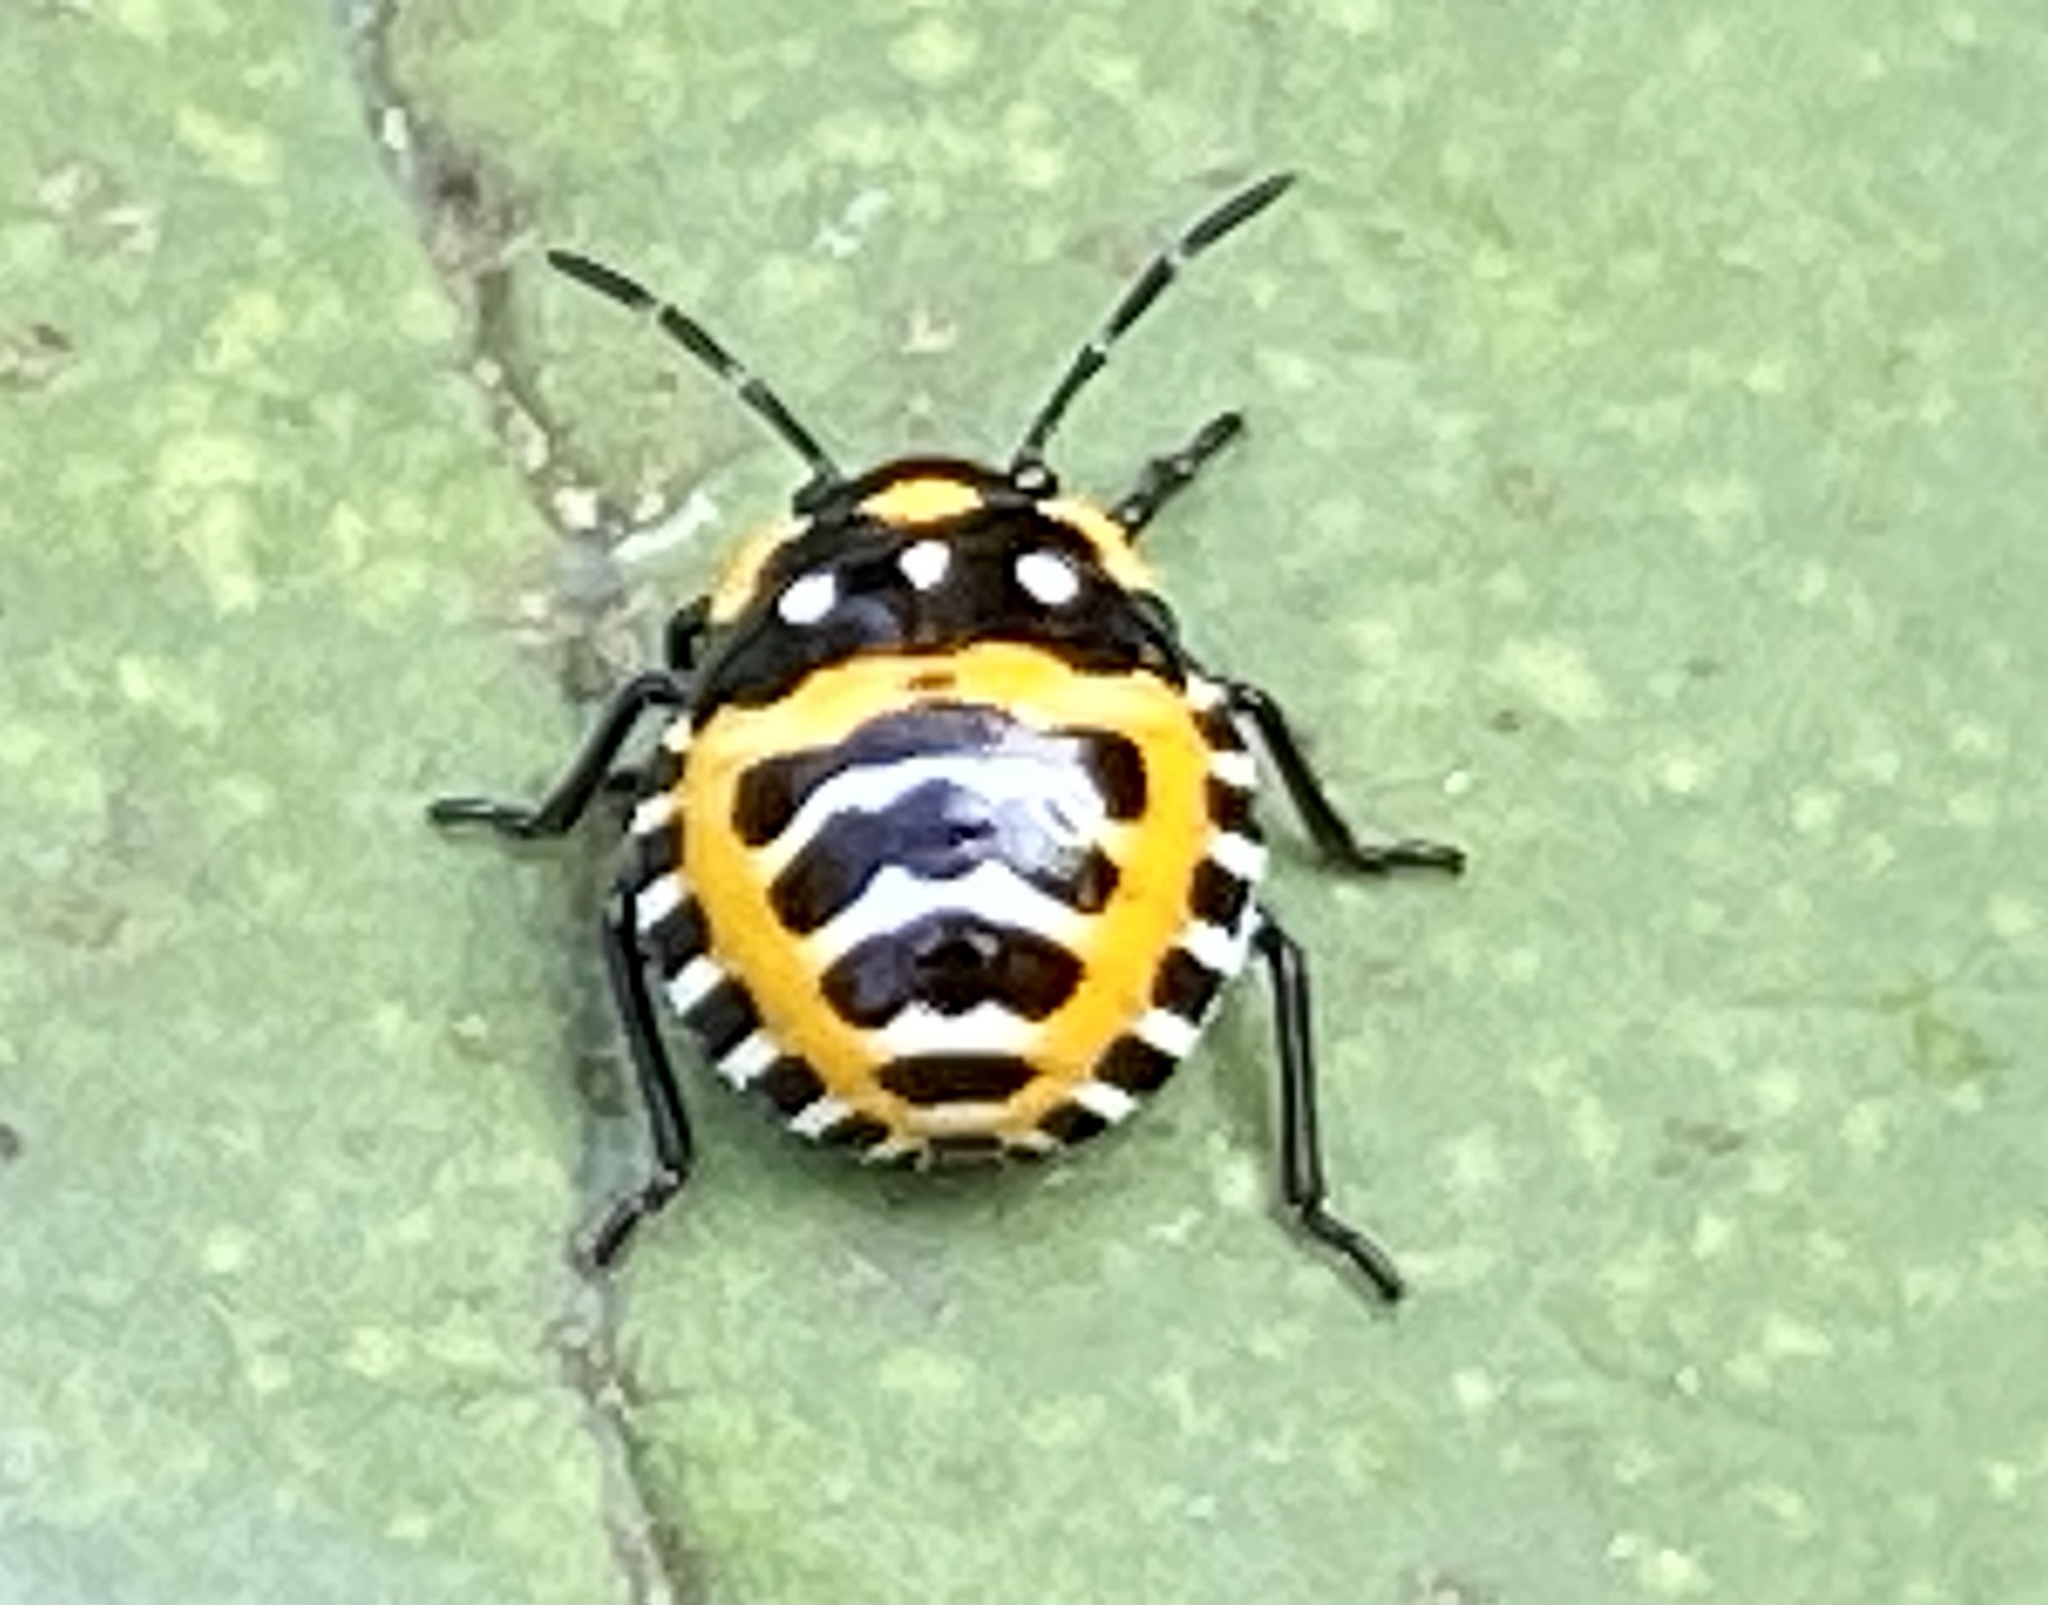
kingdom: Animalia
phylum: Arthropoda
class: Insecta
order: Hemiptera
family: Pentatomidae
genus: Murgantia
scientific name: Murgantia histrionica
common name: Harlequin bug
